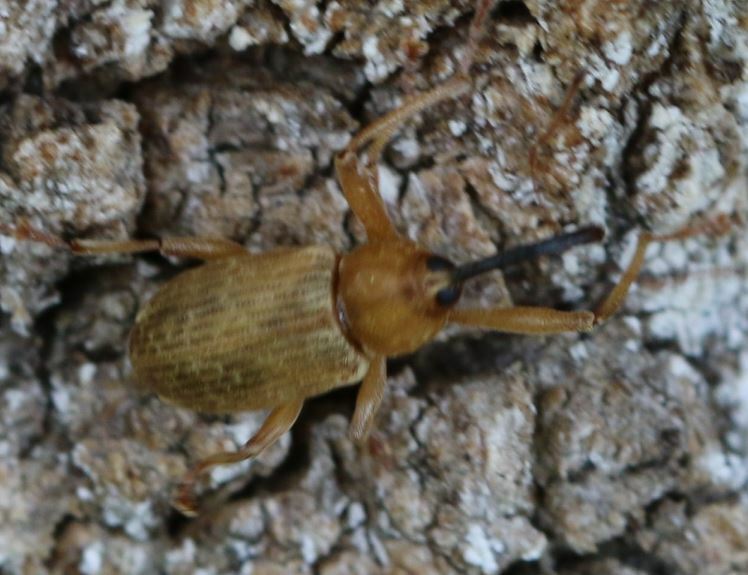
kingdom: Animalia
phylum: Arthropoda
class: Insecta
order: Coleoptera
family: Curculionidae
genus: Dorytomus
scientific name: Dorytomus longimanus
